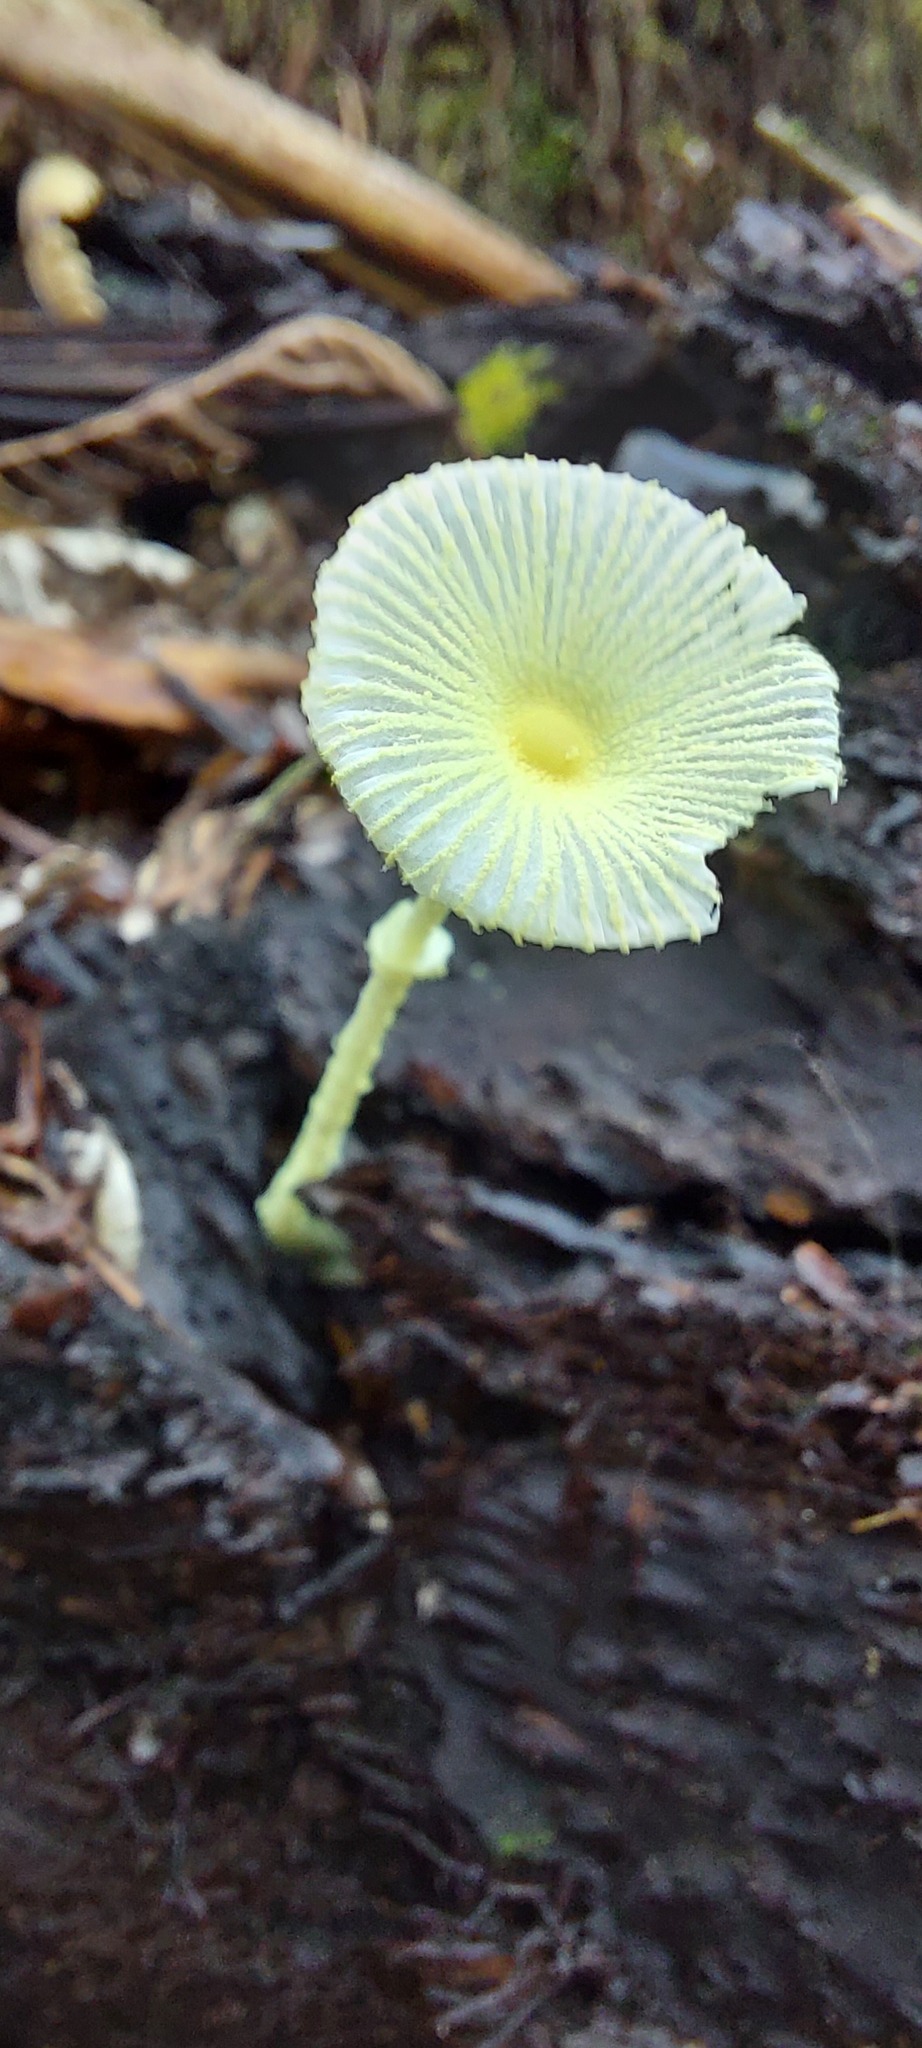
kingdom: Fungi
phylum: Basidiomycota
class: Agaricomycetes
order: Agaricales
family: Agaricaceae
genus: Leucocoprinus
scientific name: Leucocoprinus fragilissimus
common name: Fragile dapperling
